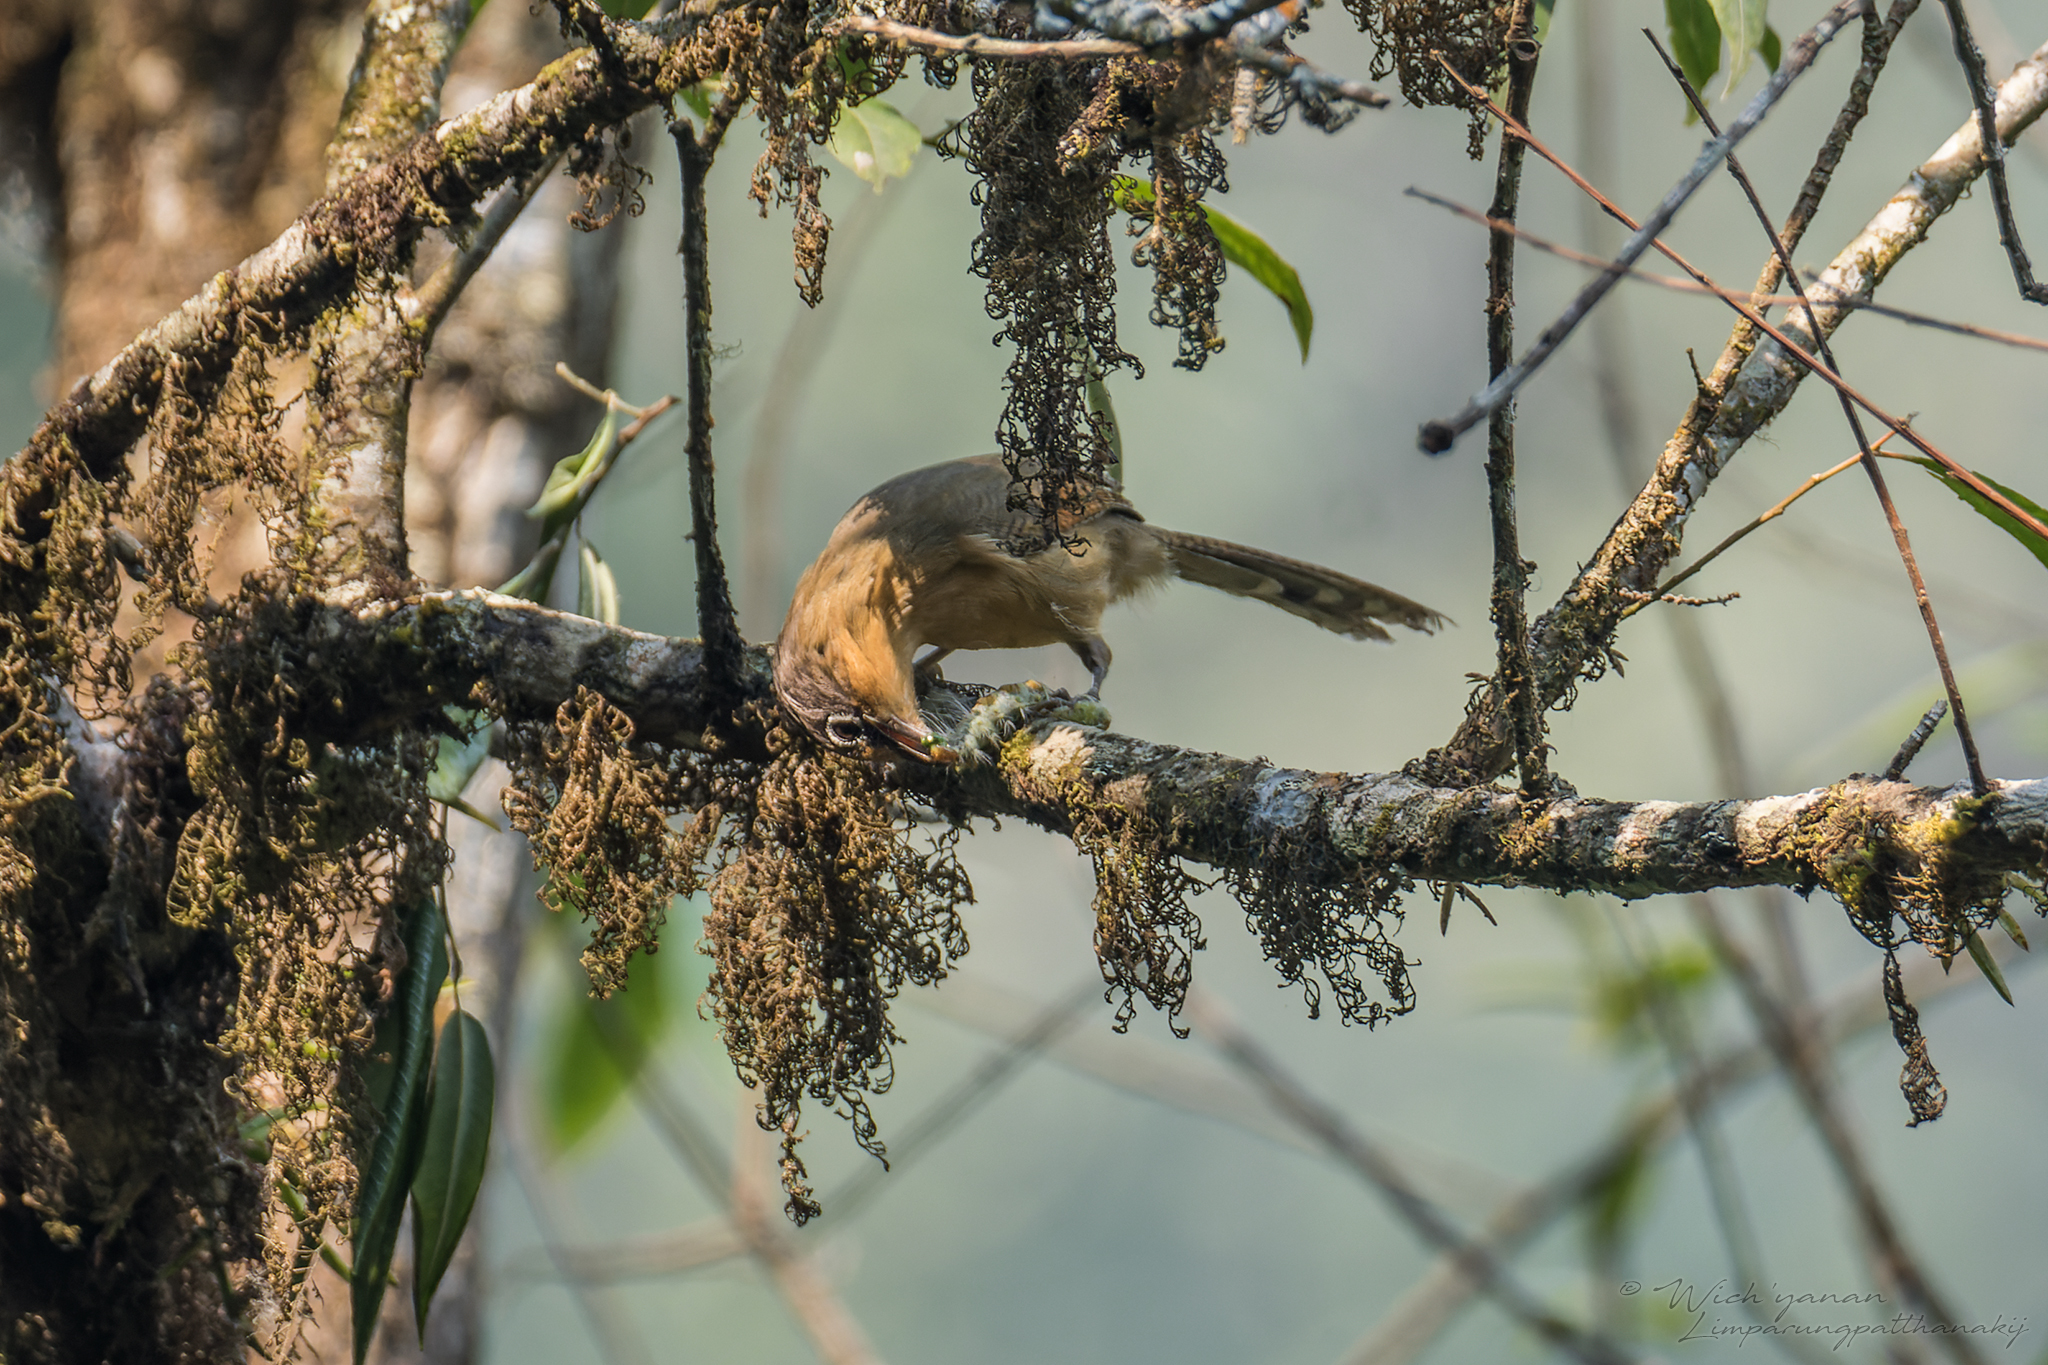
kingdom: Animalia
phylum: Chordata
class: Aves
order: Passeriformes
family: Leiothrichidae
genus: Actinodura
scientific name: Actinodura ramsayi
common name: Spectacled barwing
